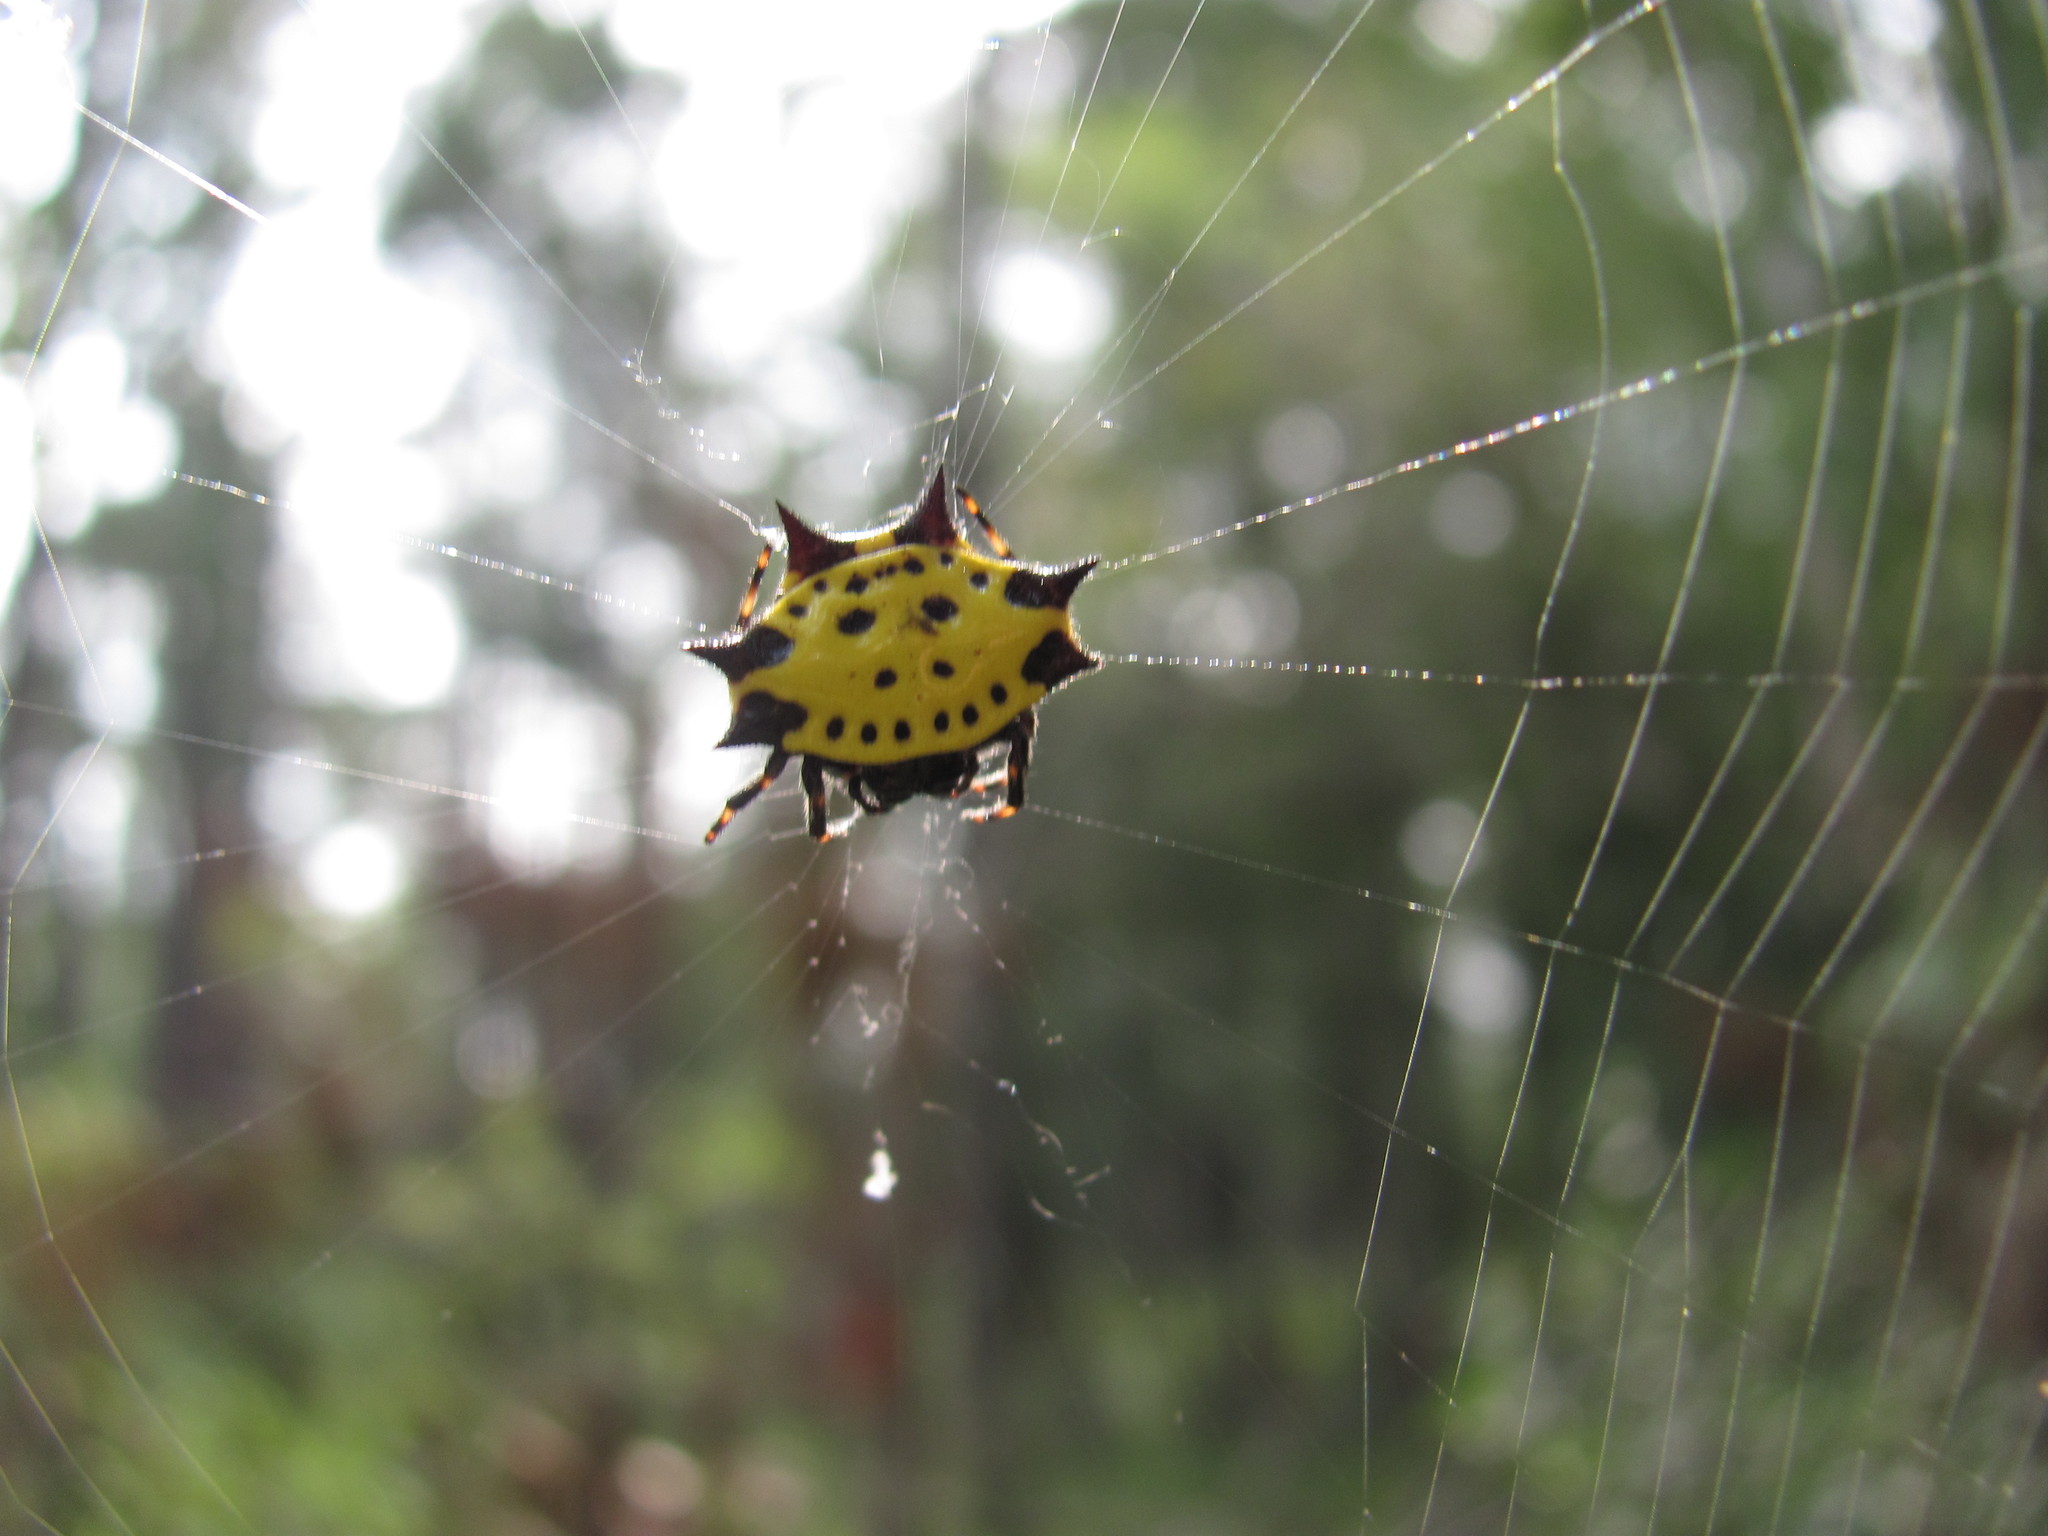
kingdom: Animalia
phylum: Arthropoda
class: Arachnida
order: Araneae
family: Araneidae
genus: Gasteracantha
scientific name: Gasteracantha cancriformis
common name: Orb weavers
